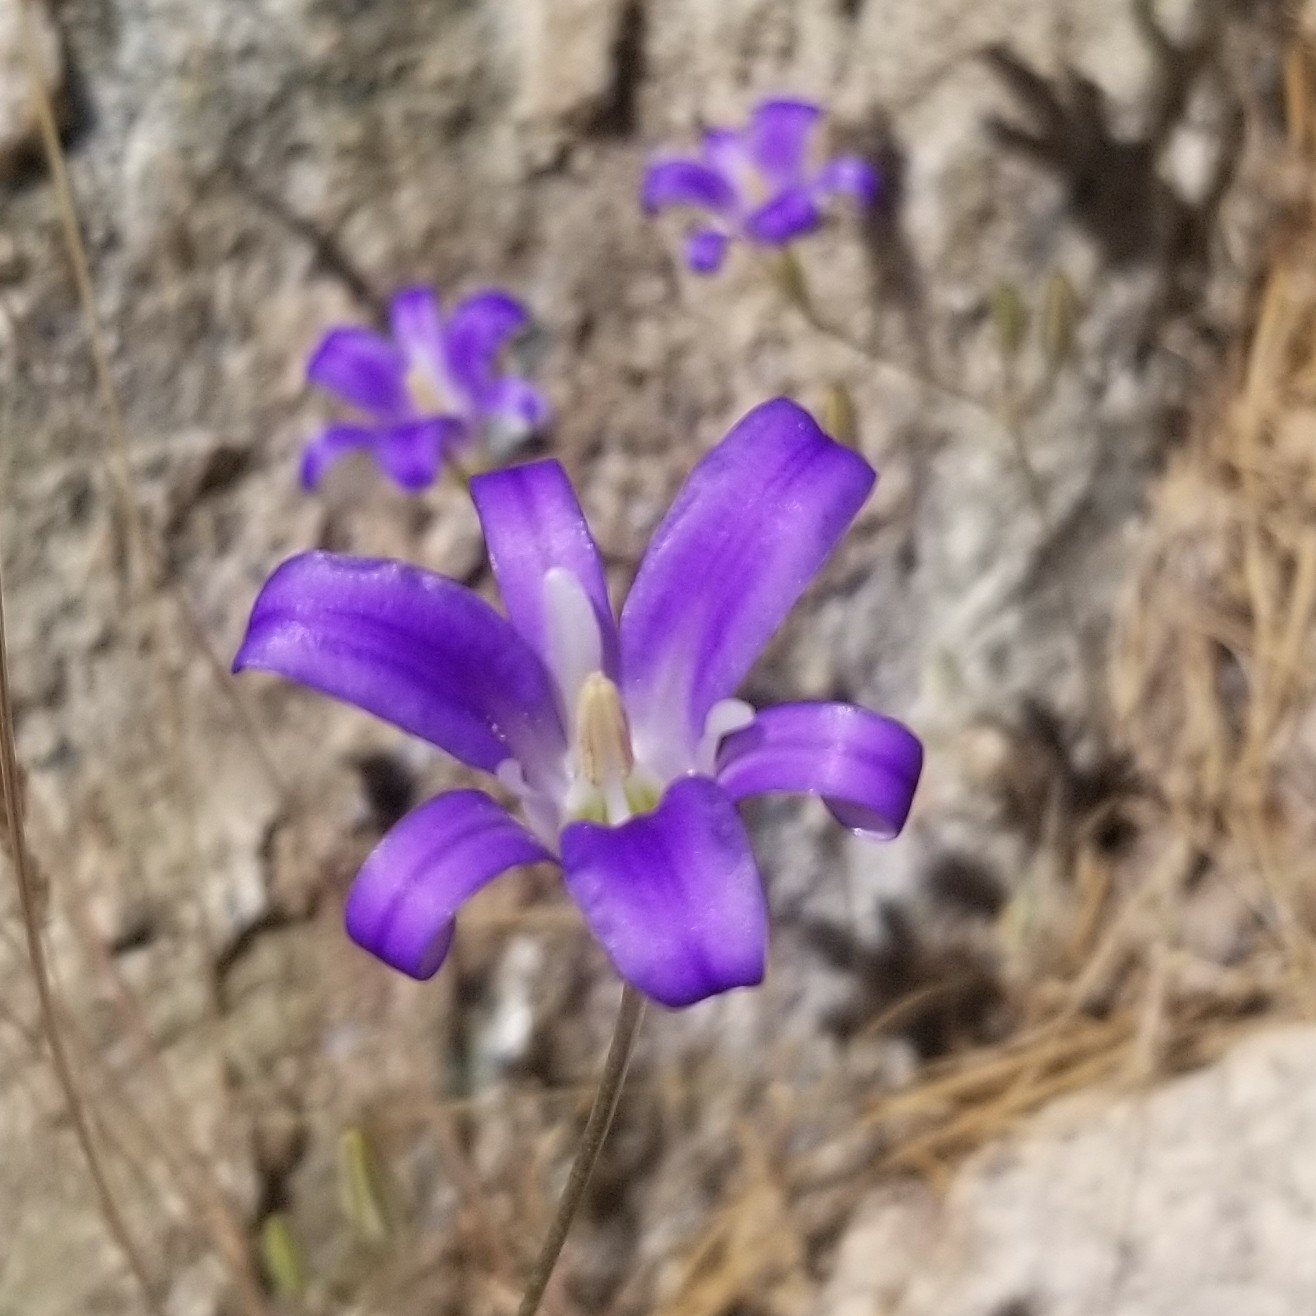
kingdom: Plantae
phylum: Tracheophyta
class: Liliopsida
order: Asparagales
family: Asparagaceae
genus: Brodiaea
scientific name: Brodiaea elegans
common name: Elegant cluster-lily
